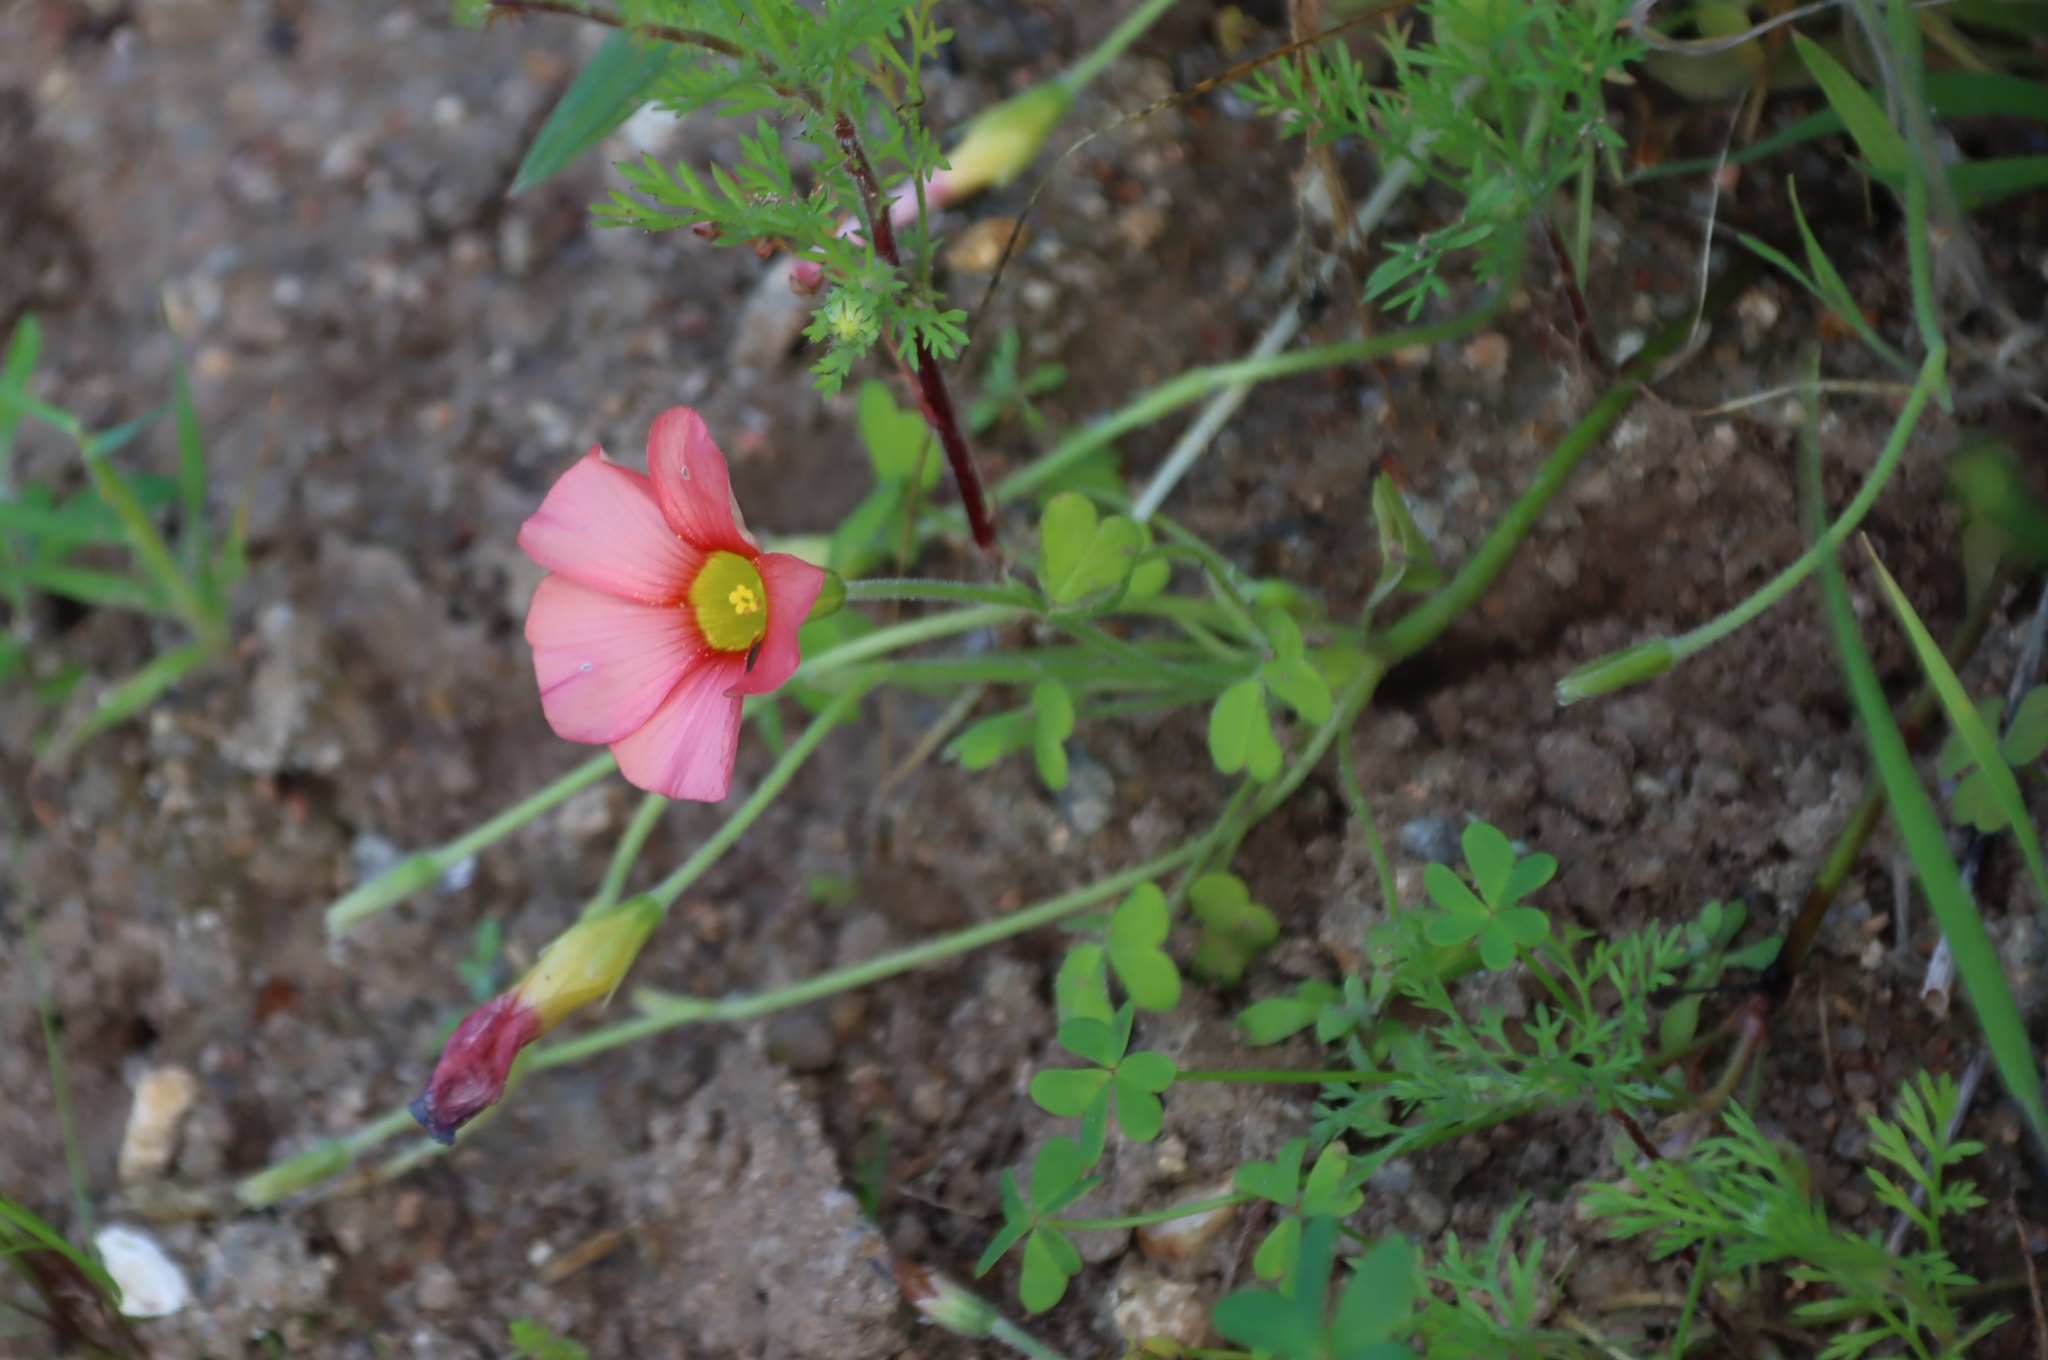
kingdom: Plantae
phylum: Tracheophyta
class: Magnoliopsida
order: Oxalidales
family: Oxalidaceae
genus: Oxalis
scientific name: Oxalis obtusa
